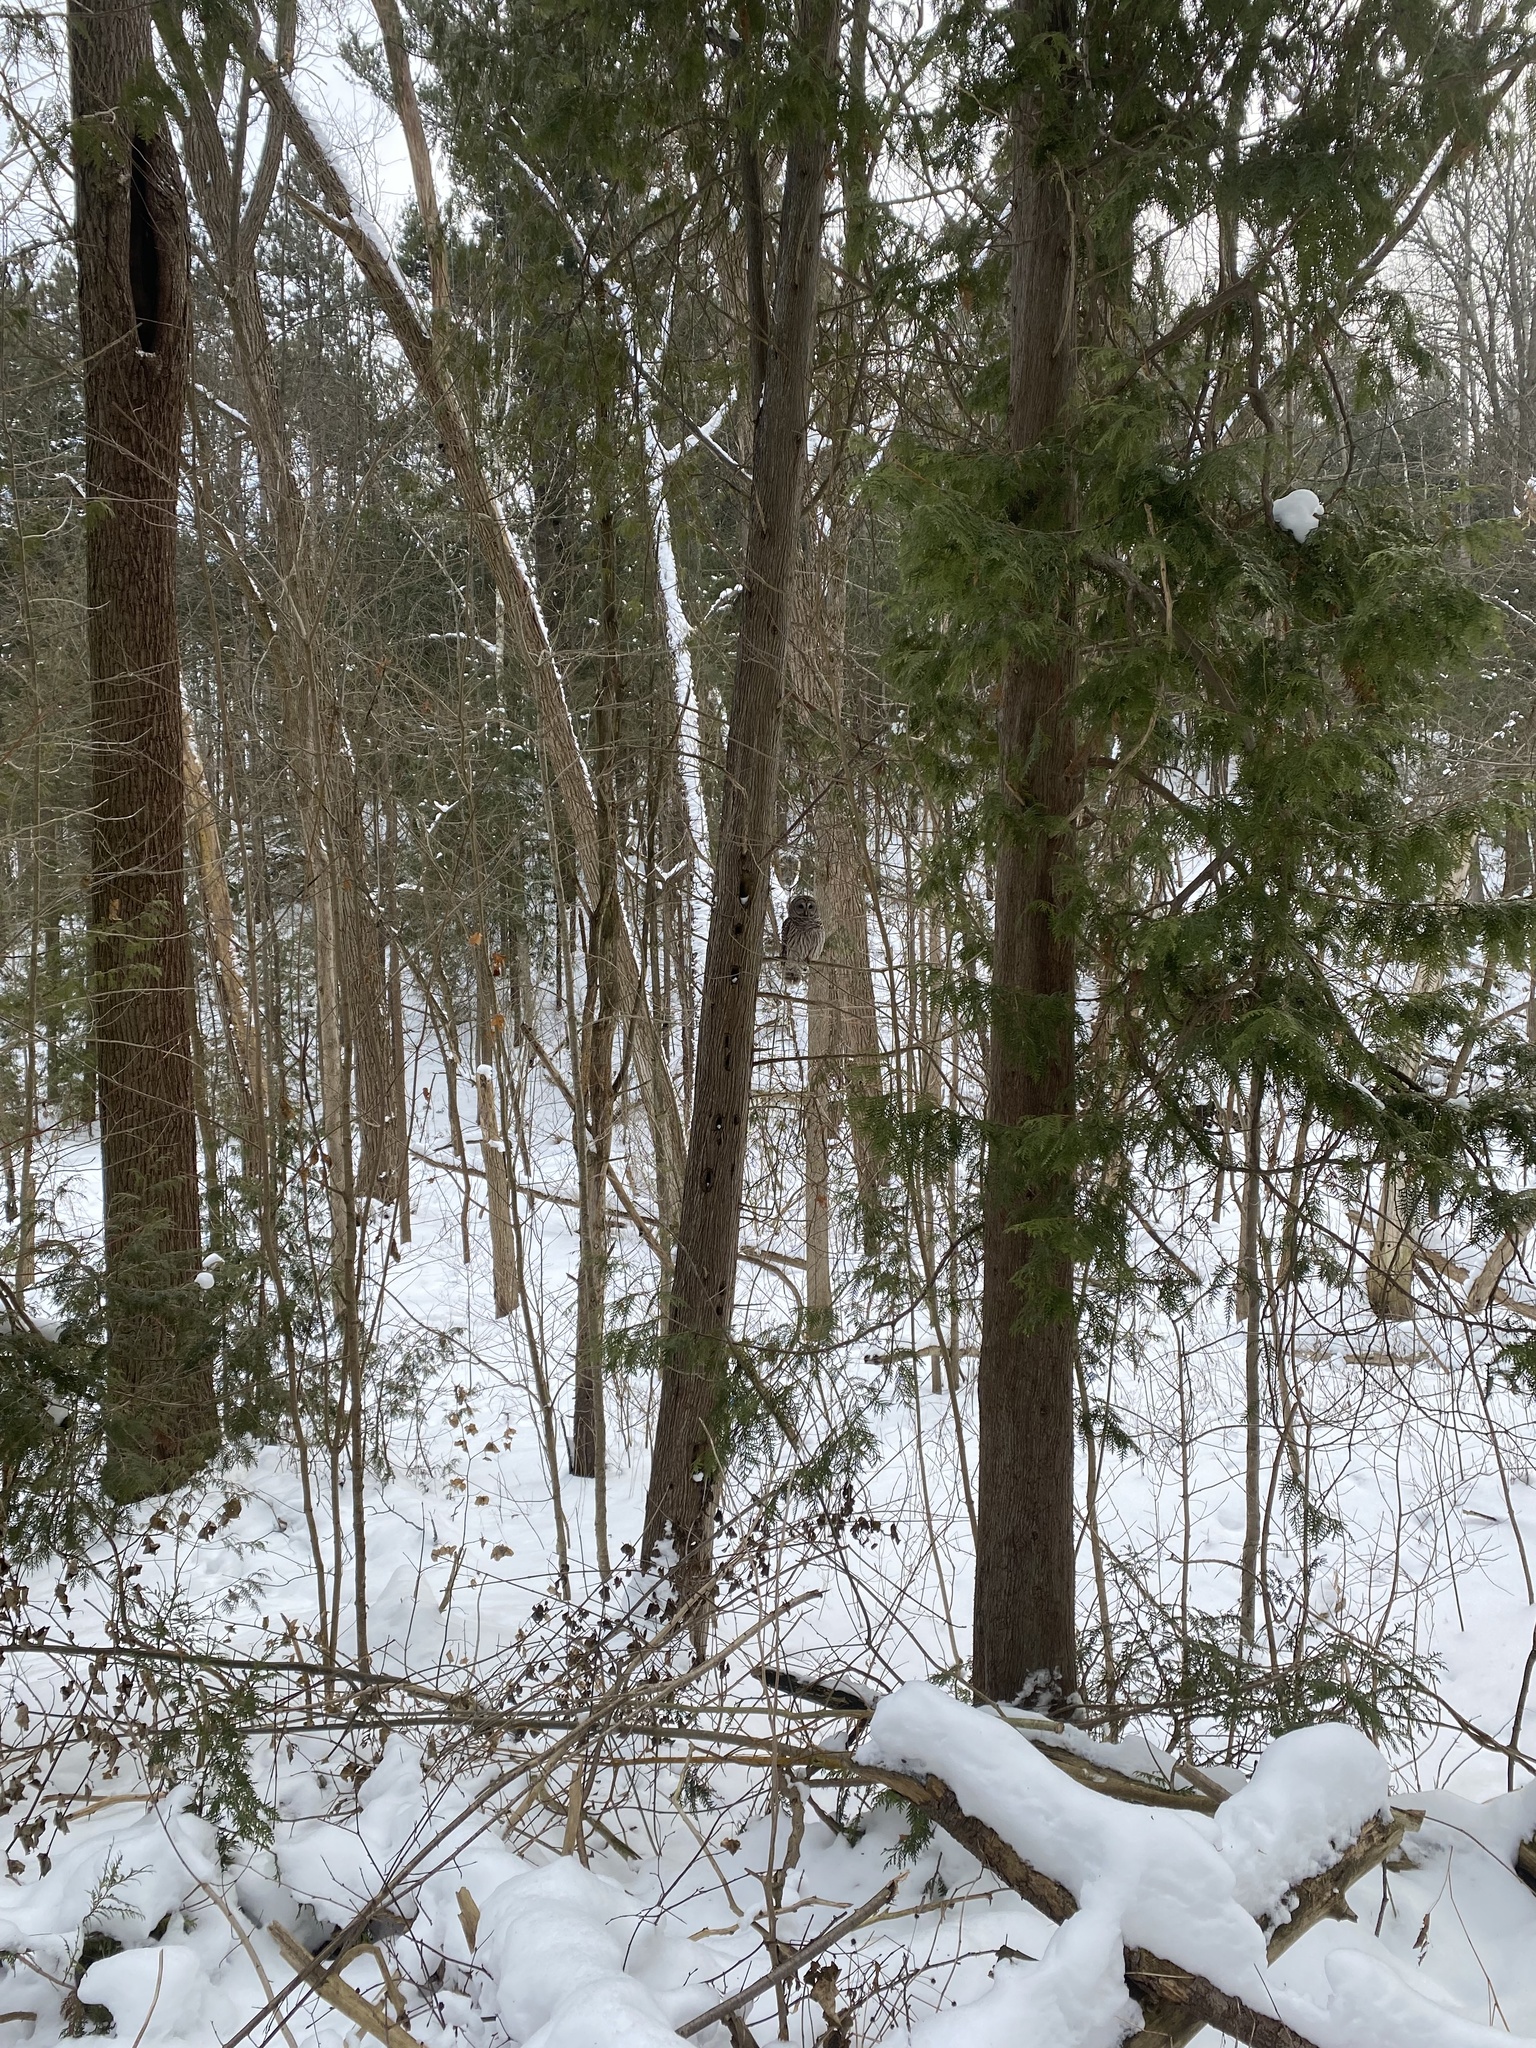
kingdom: Animalia
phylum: Chordata
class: Aves
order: Strigiformes
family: Strigidae
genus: Strix
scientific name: Strix varia
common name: Barred owl
